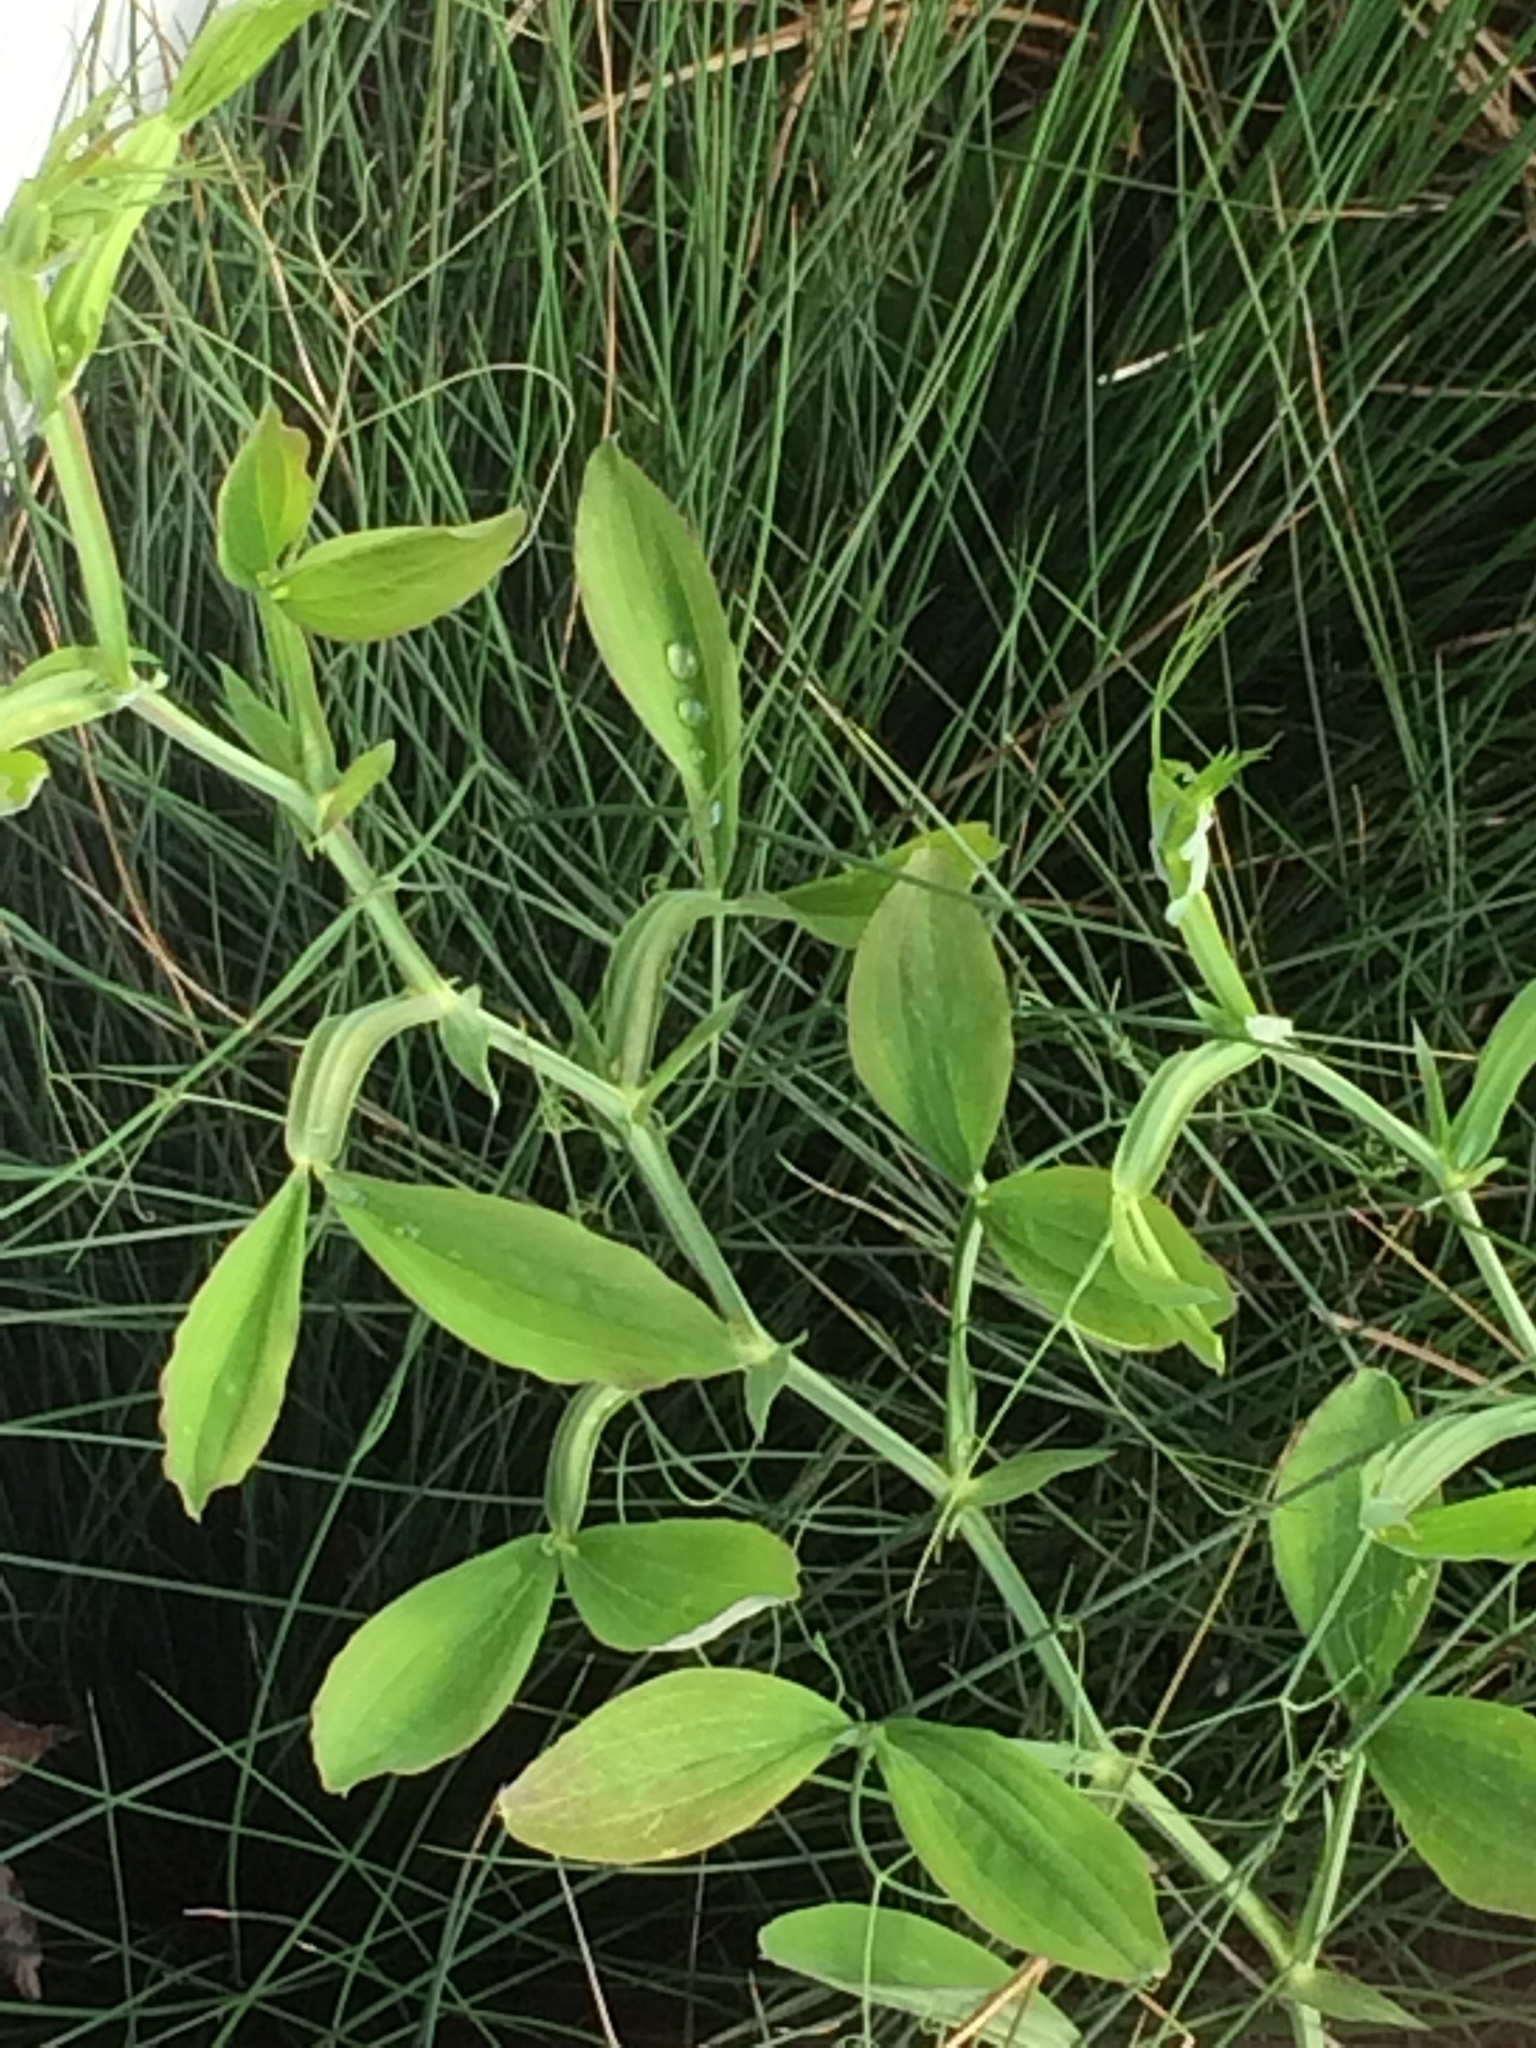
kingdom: Plantae
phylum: Tracheophyta
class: Magnoliopsida
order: Fabales
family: Fabaceae
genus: Lathyrus
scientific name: Lathyrus latifolius
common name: Perennial pea
